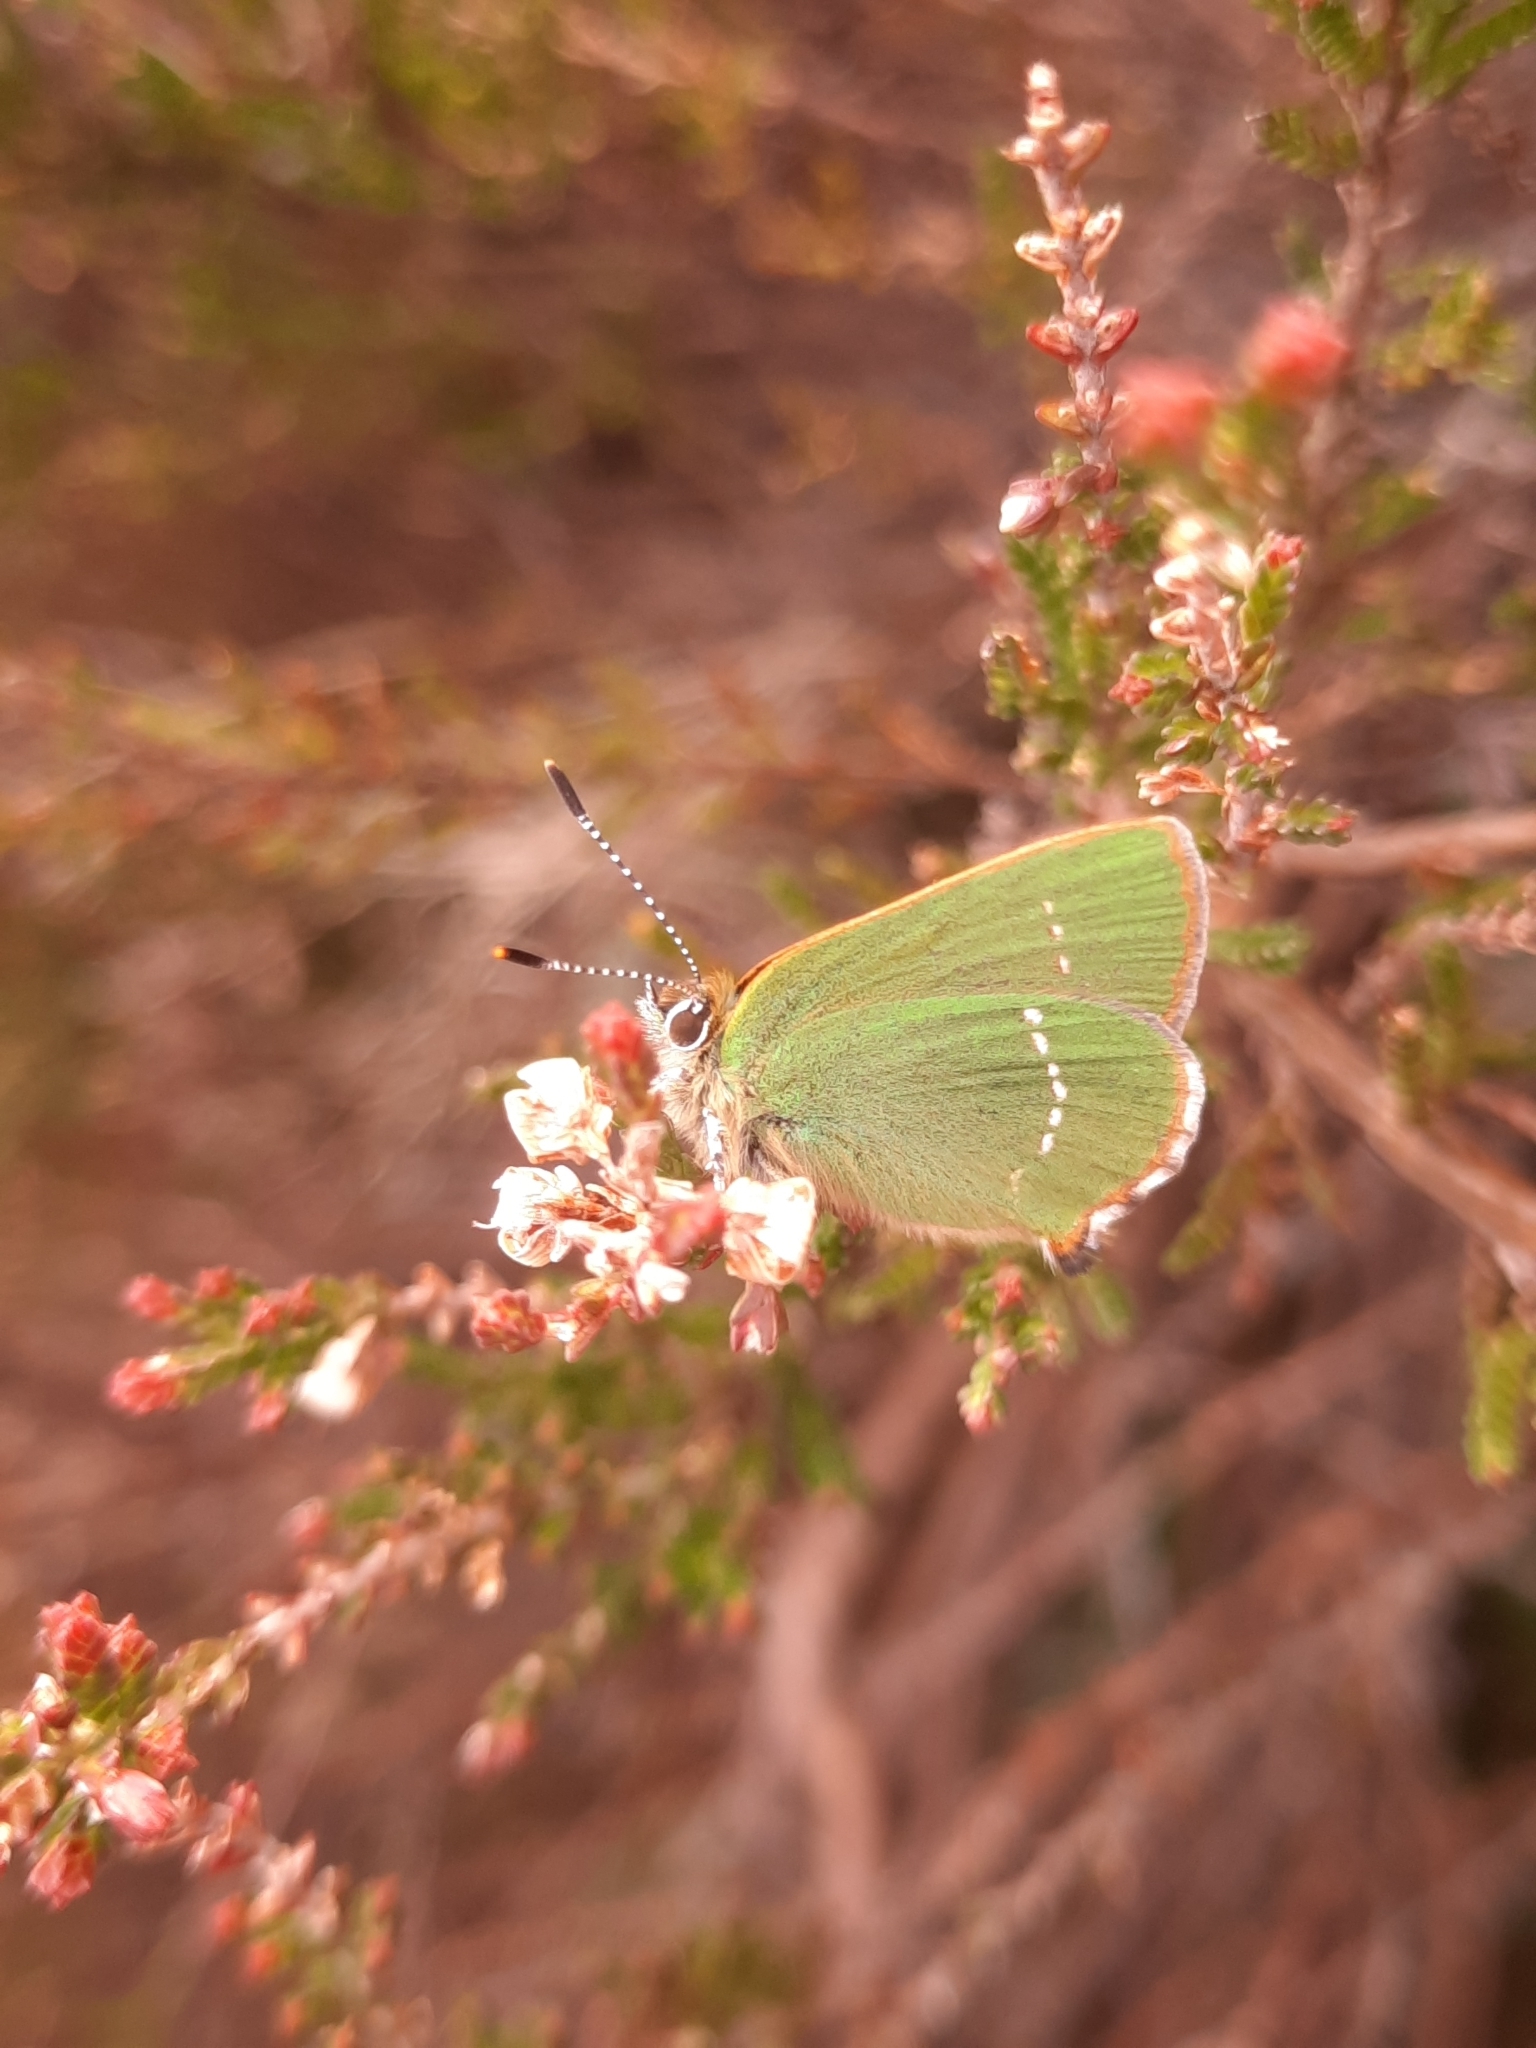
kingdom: Animalia
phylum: Arthropoda
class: Insecta
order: Lepidoptera
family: Lycaenidae
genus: Callophrys
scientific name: Callophrys rubi
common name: Green hairstreak
